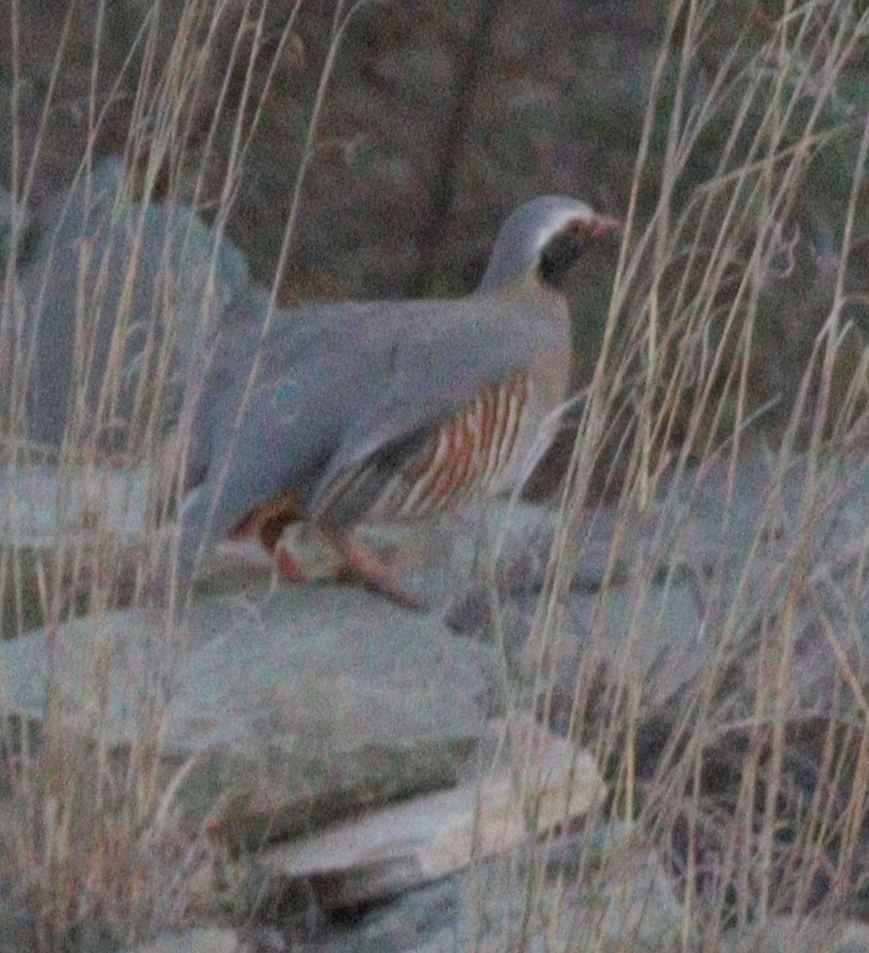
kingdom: Animalia
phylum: Chordata
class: Aves
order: Galliformes
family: Phasianidae
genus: Alectoris
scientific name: Alectoris philbyi
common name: Philby's partridge
